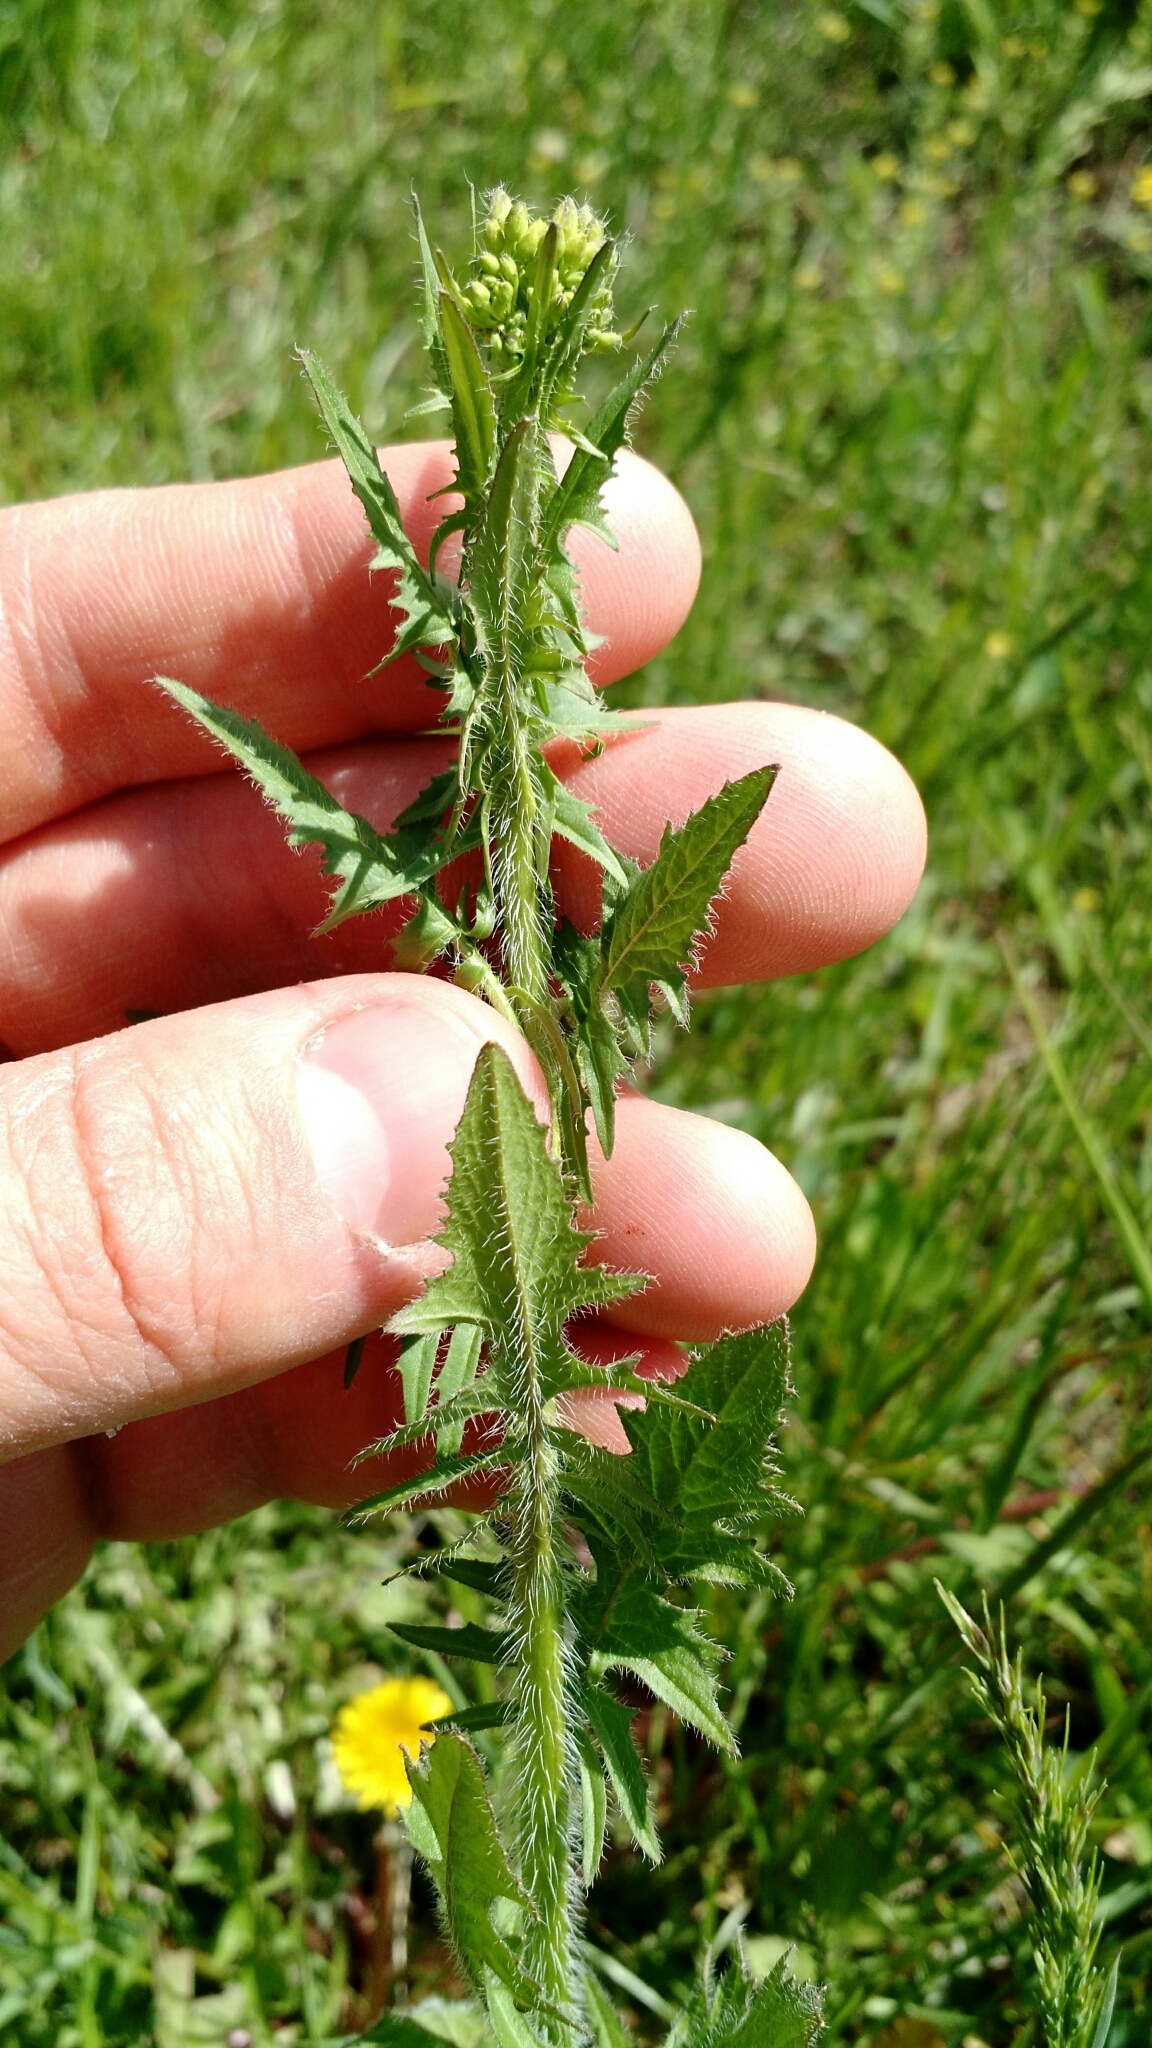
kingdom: Plantae
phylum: Tracheophyta
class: Magnoliopsida
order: Brassicales
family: Brassicaceae
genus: Sisymbrium
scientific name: Sisymbrium loeselii
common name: False london-rocket
